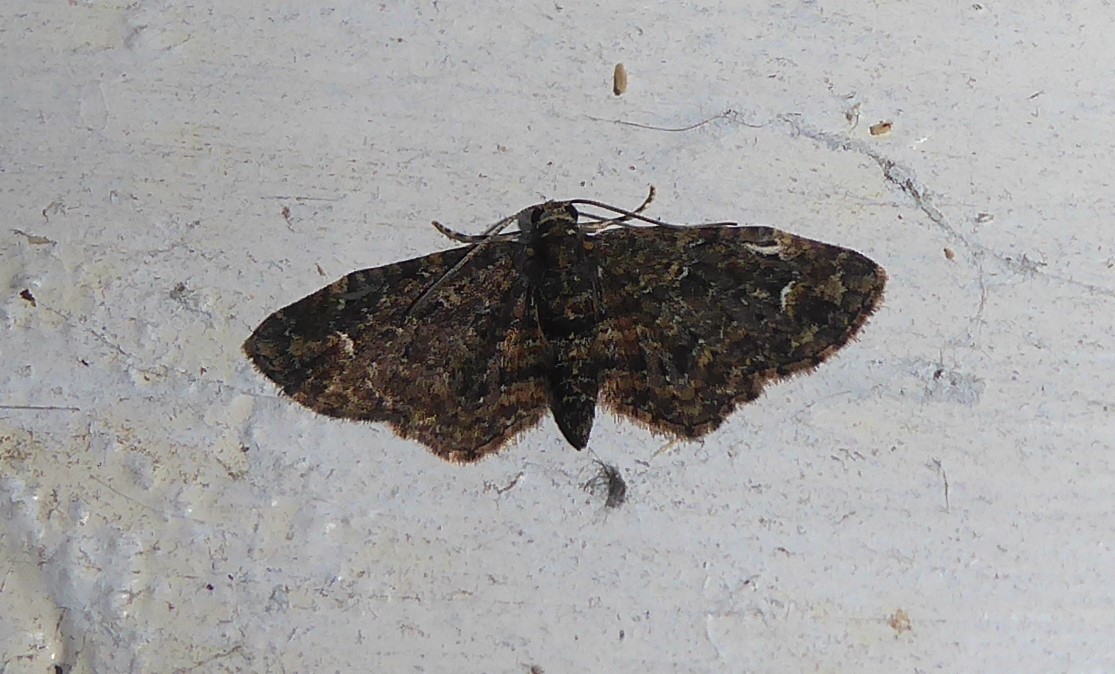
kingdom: Animalia
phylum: Arthropoda
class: Insecta
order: Lepidoptera
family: Geometridae
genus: Pasiphilodes
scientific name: Pasiphilodes testulata
